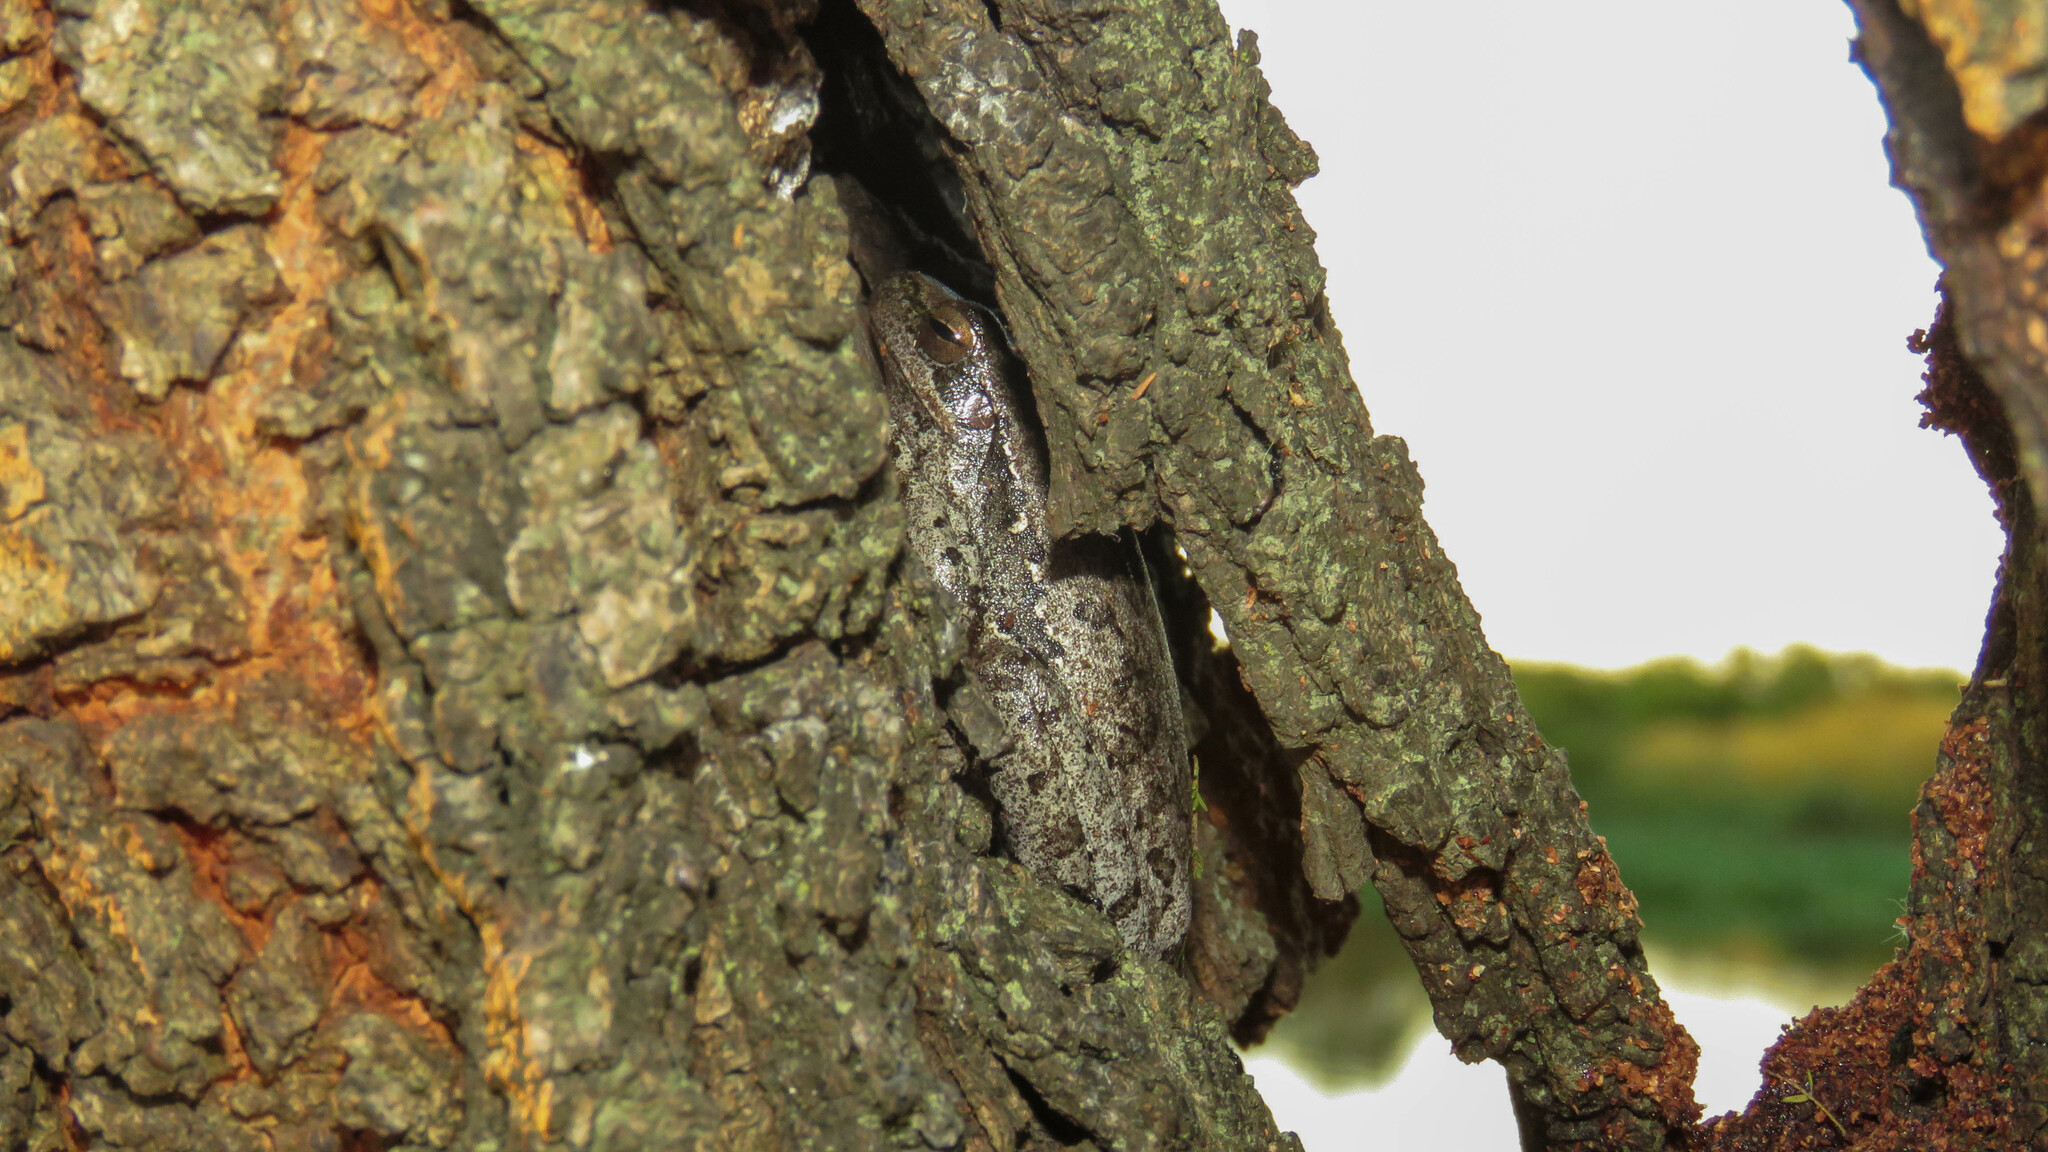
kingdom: Animalia
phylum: Chordata
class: Amphibia
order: Anura
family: Hylidae
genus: Boana
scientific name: Boana pulchella
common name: Montevideo treefrog
